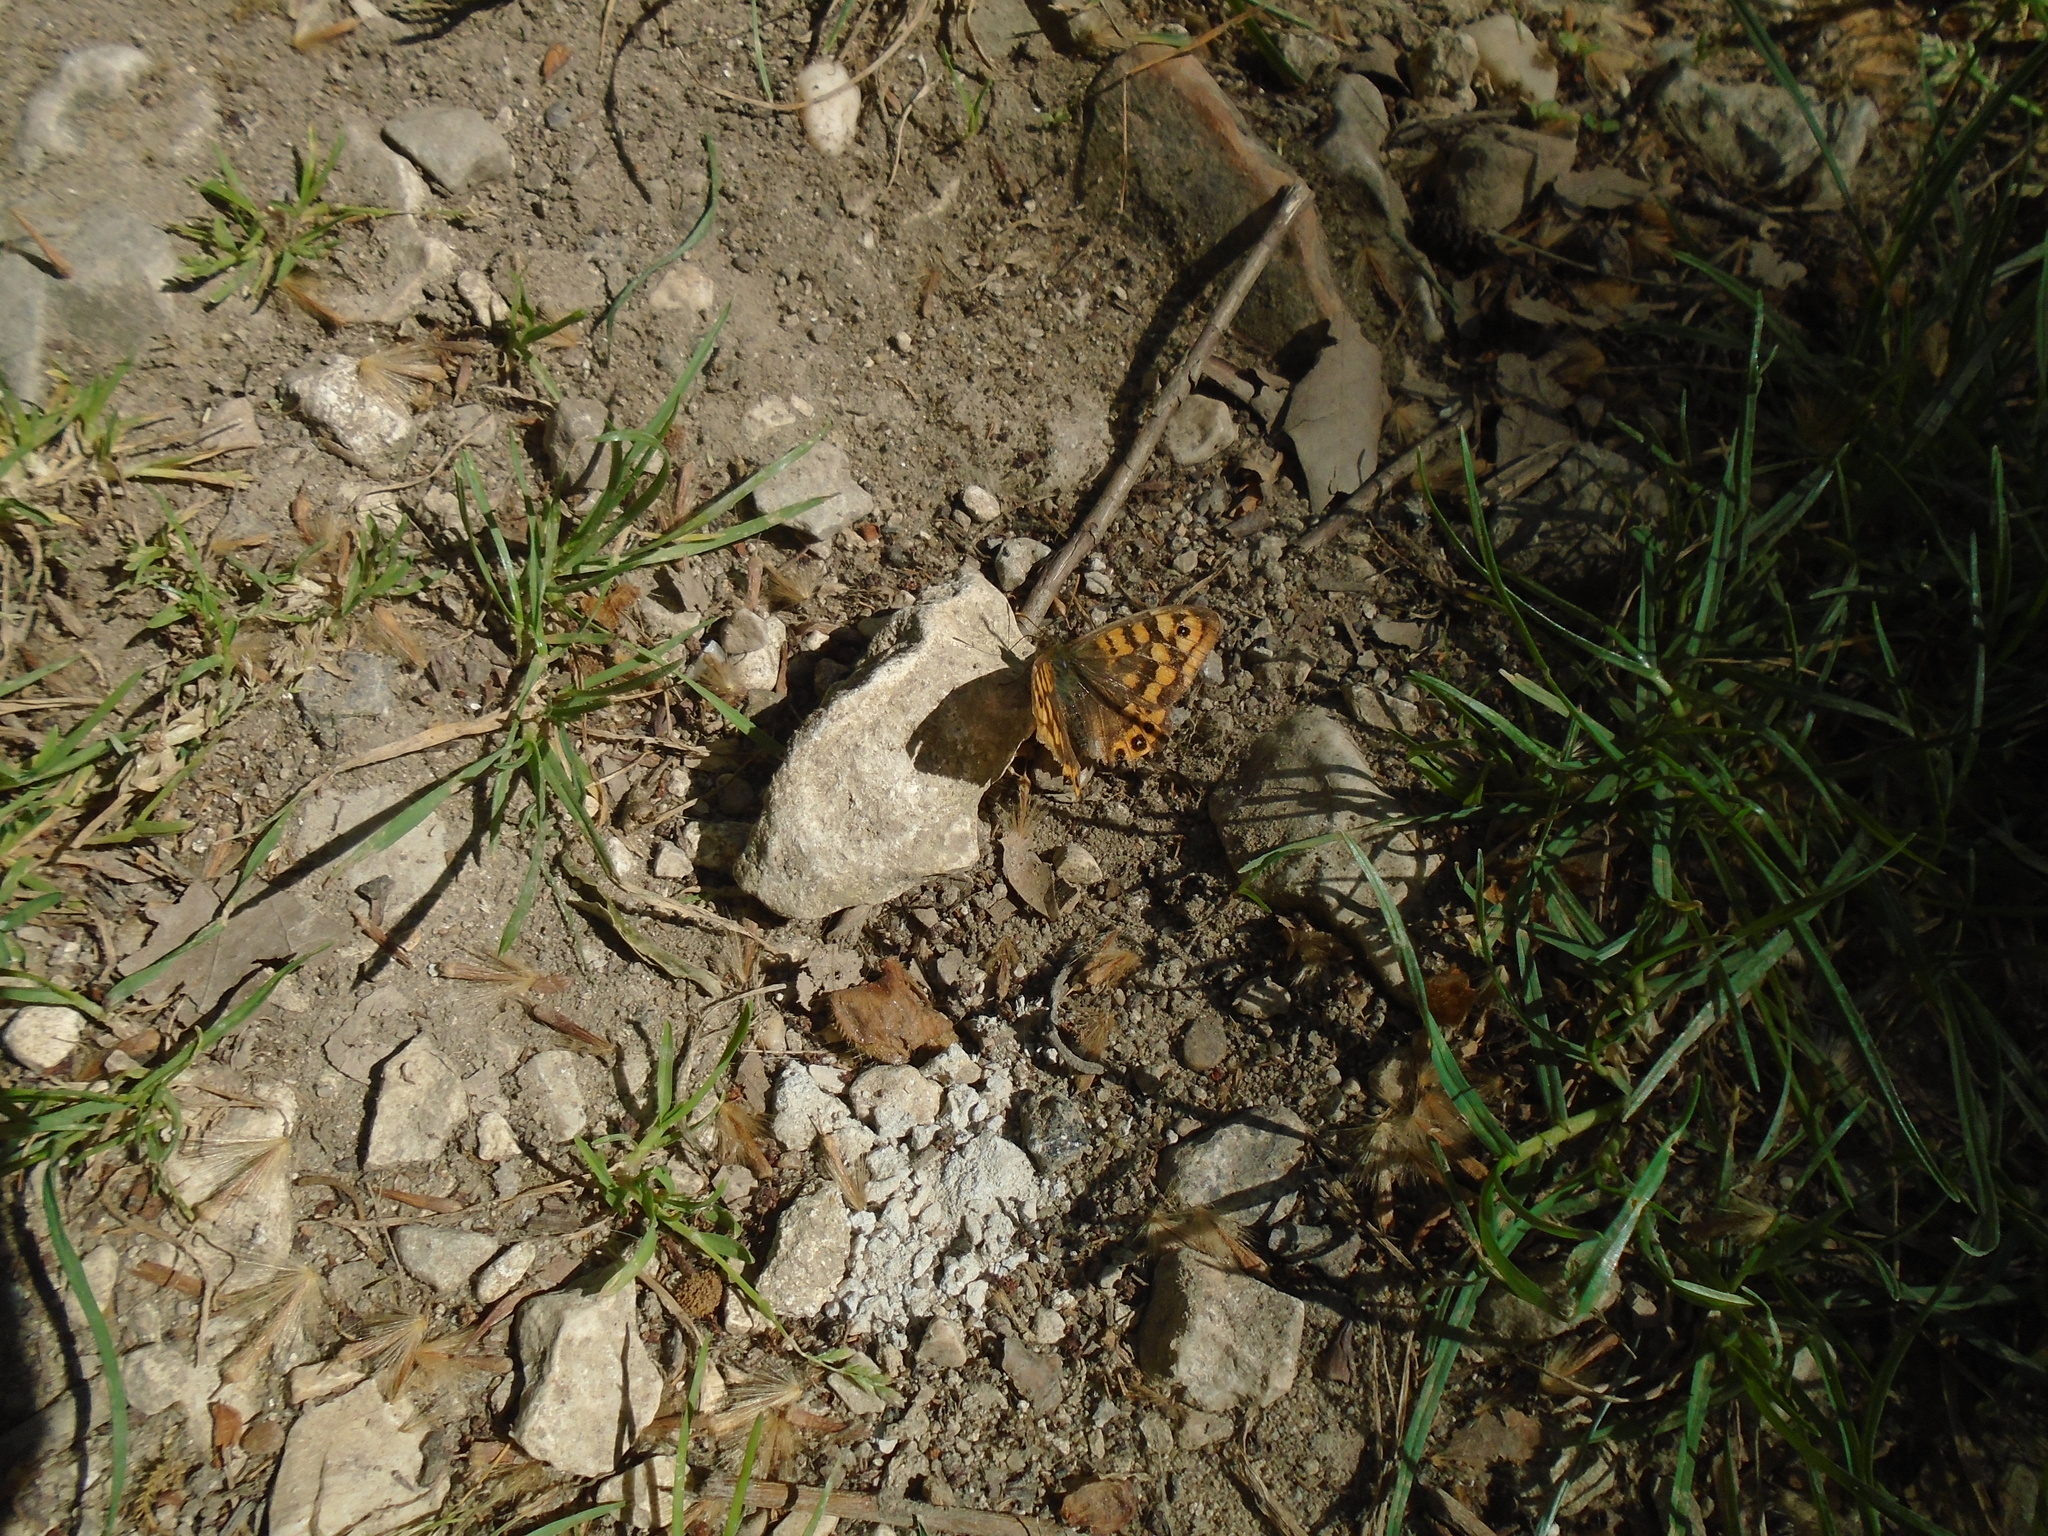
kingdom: Animalia
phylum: Arthropoda
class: Insecta
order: Lepidoptera
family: Nymphalidae
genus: Pararge
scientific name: Pararge aegeria
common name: Speckled wood
